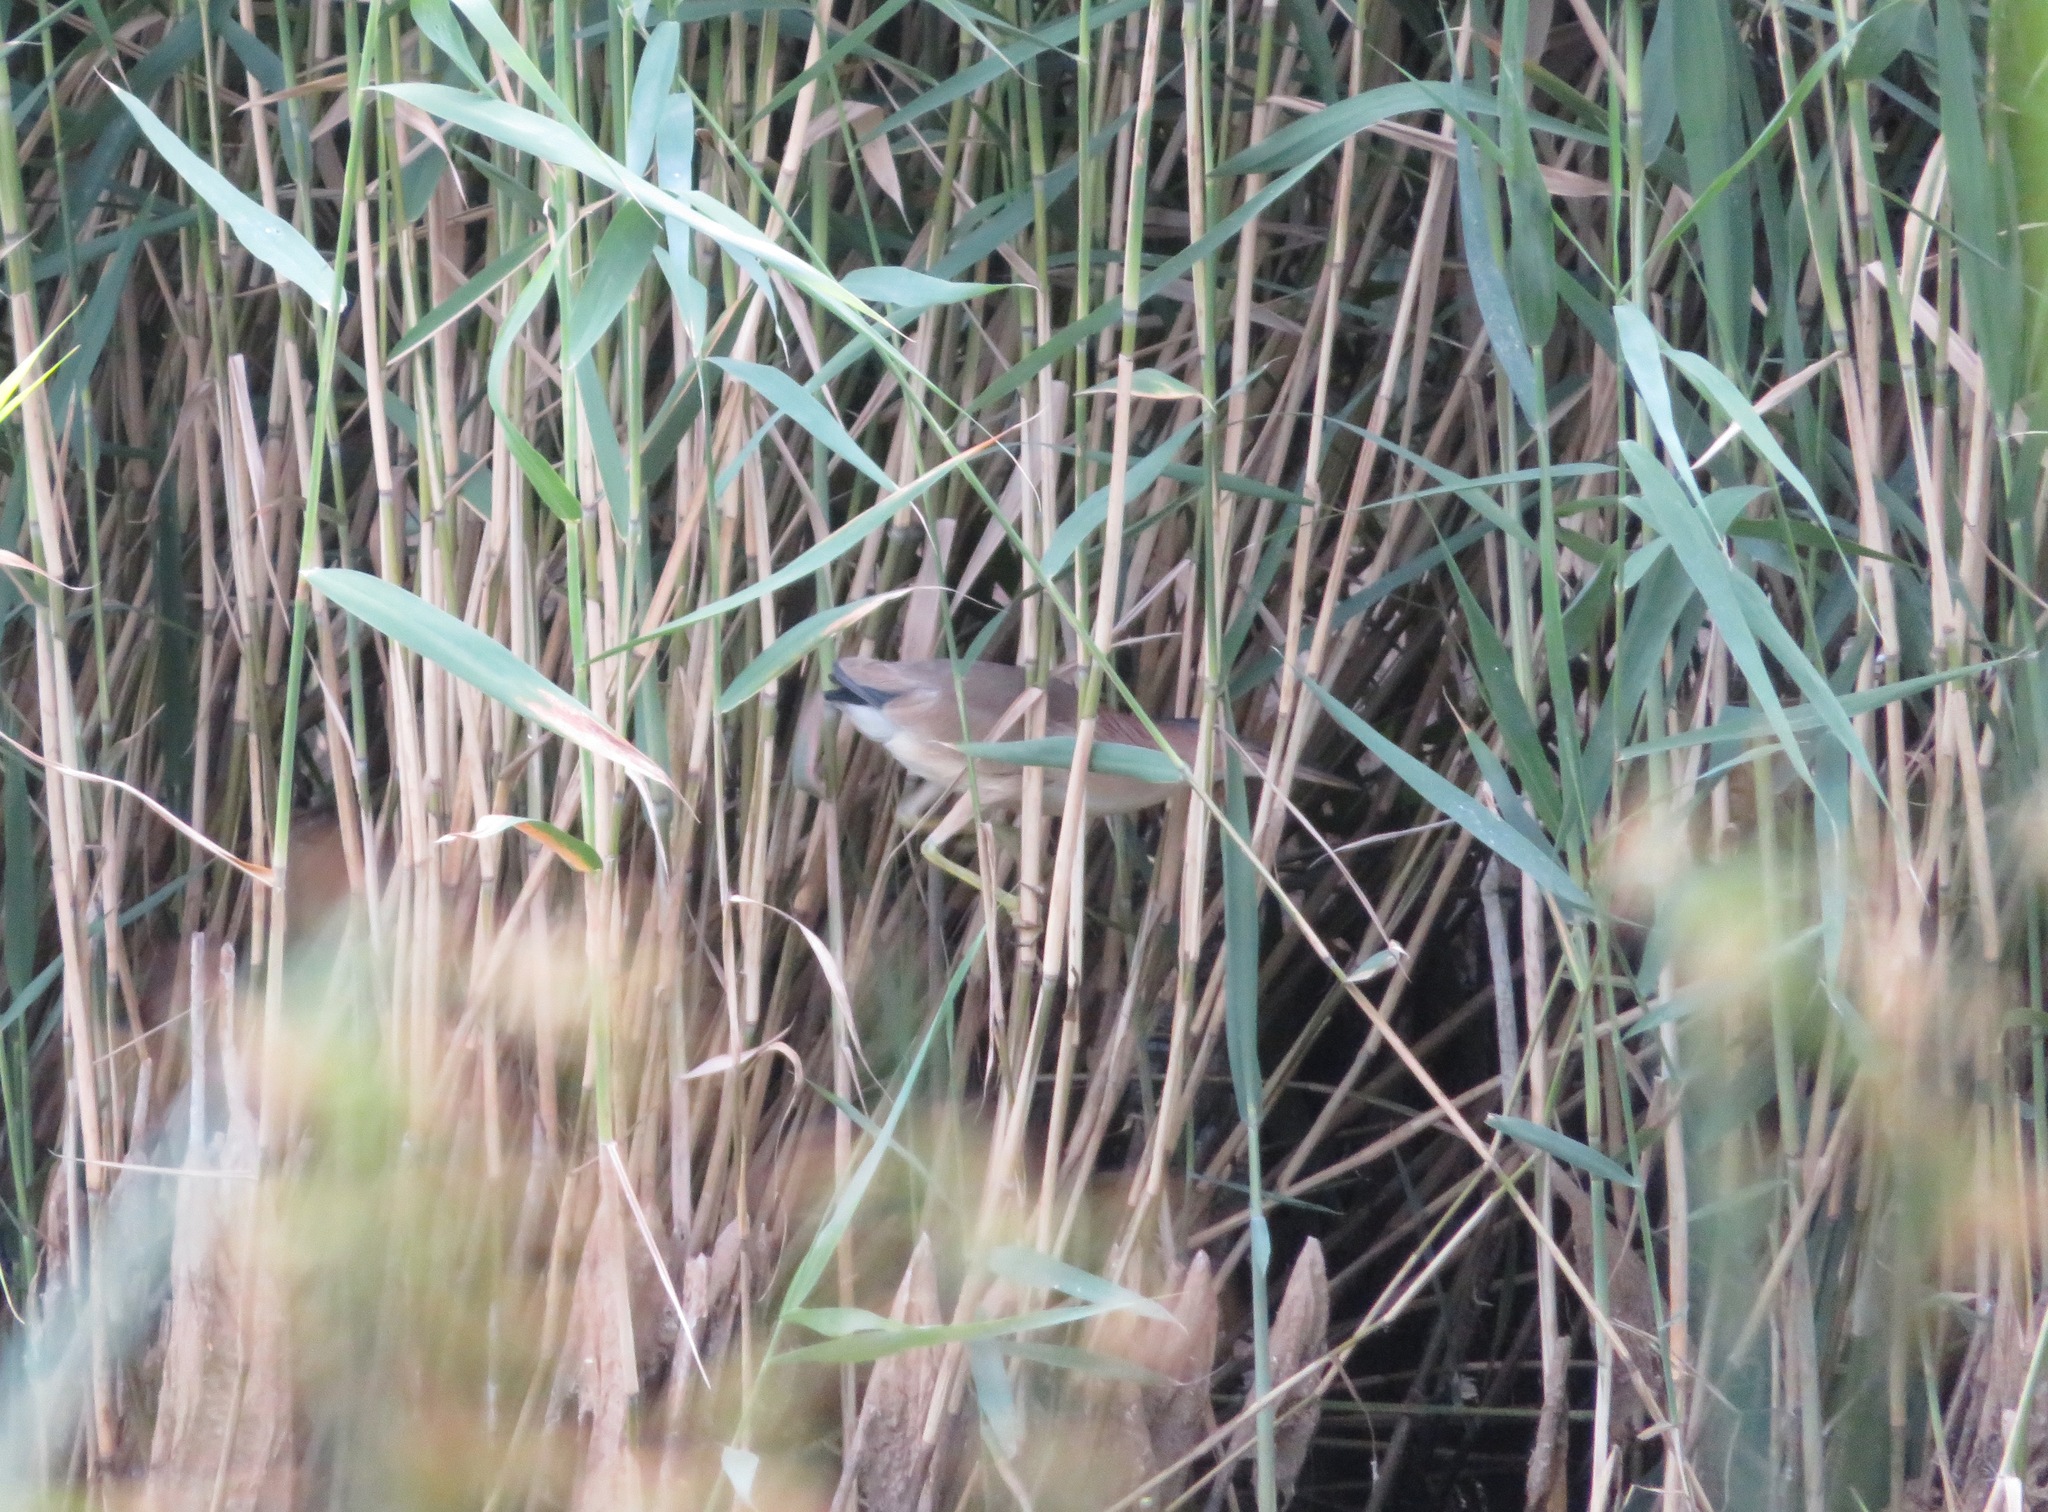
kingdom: Animalia
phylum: Chordata
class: Aves
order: Pelecaniformes
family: Ardeidae
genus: Ixobrychus
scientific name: Ixobrychus sinensis
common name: Yellow bittern
